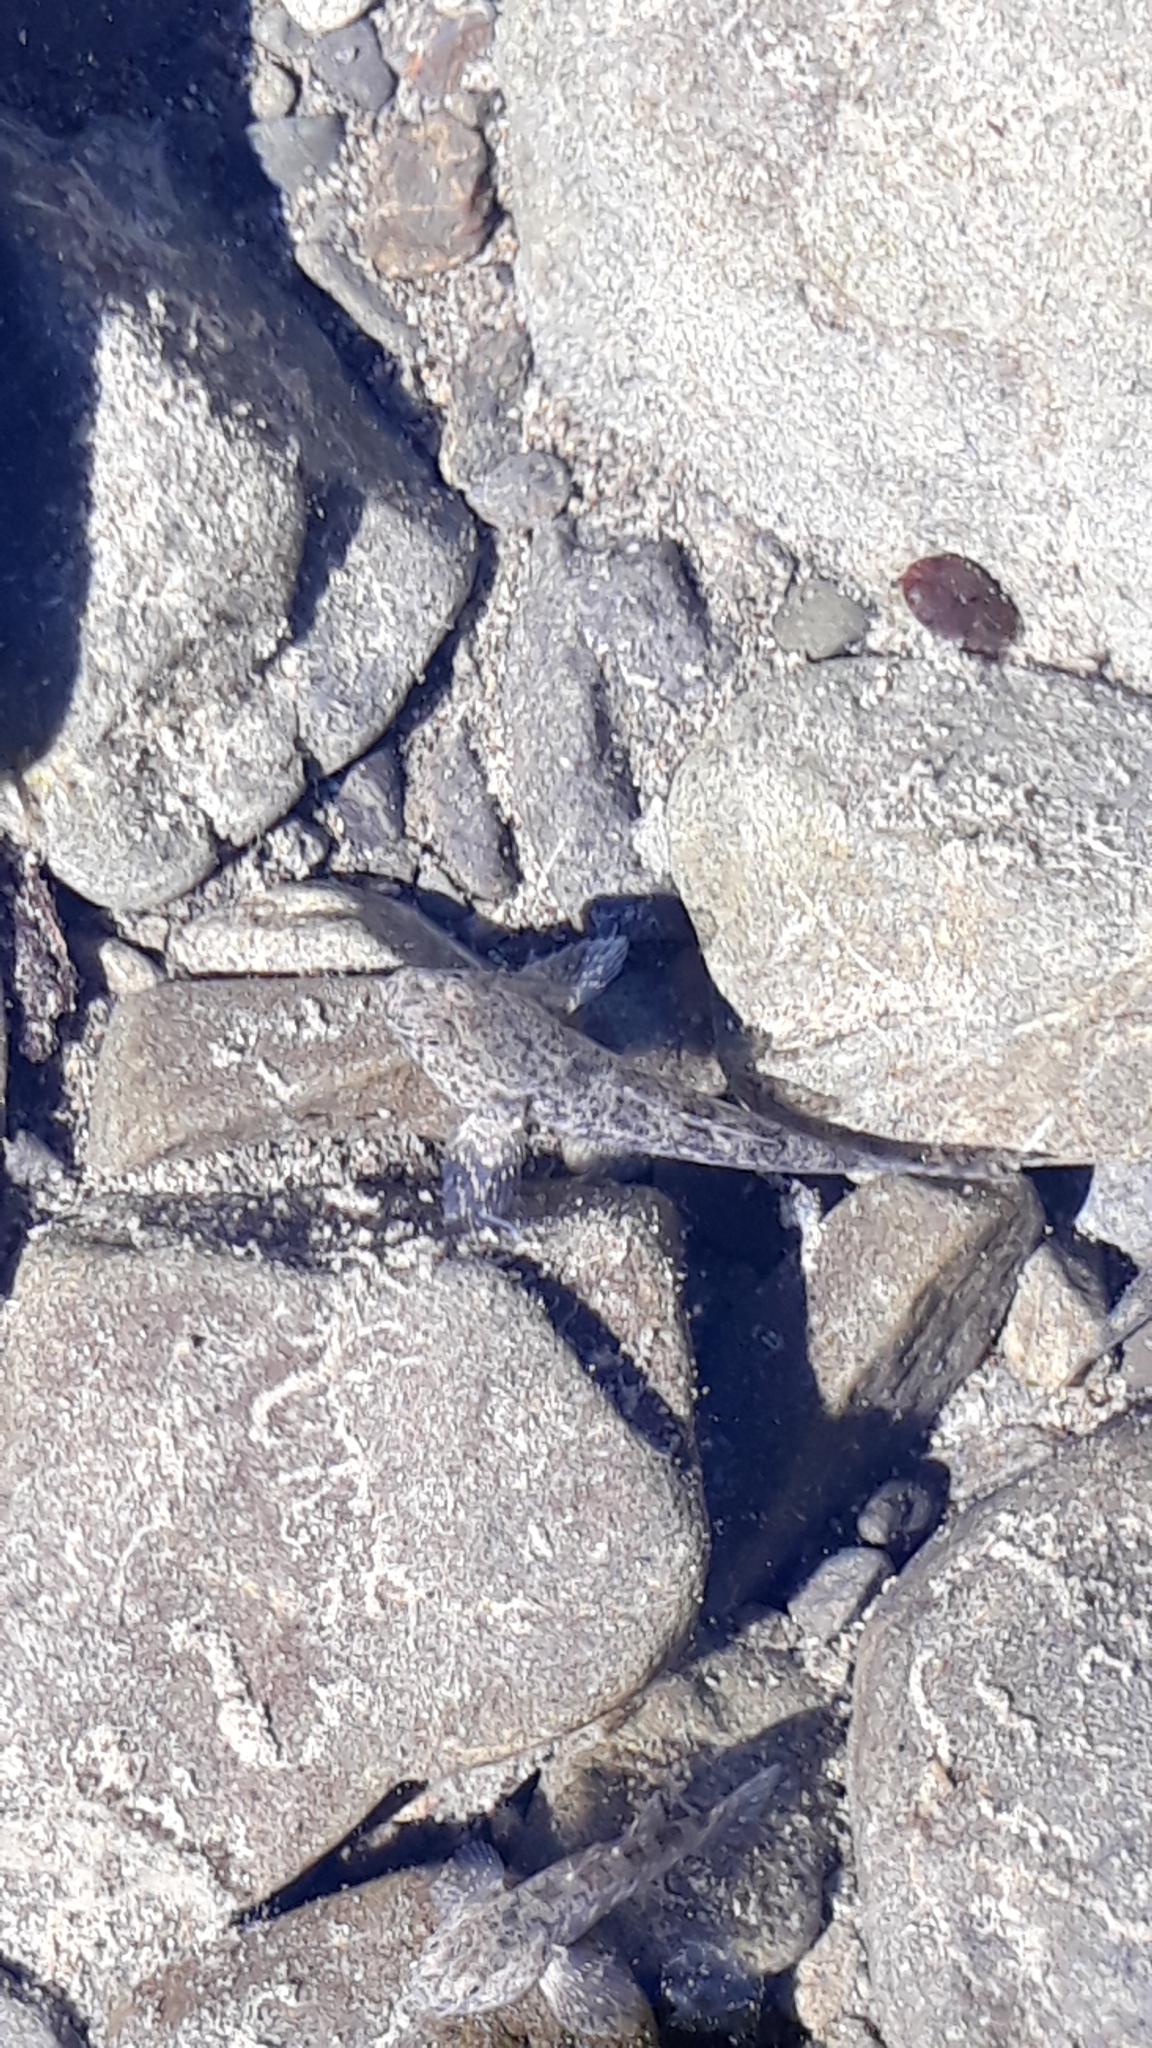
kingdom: Animalia
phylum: Chordata
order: Perciformes
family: Eleotridae
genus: Gobiomorphus
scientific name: Gobiomorphus breviceps
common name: Upland bully
